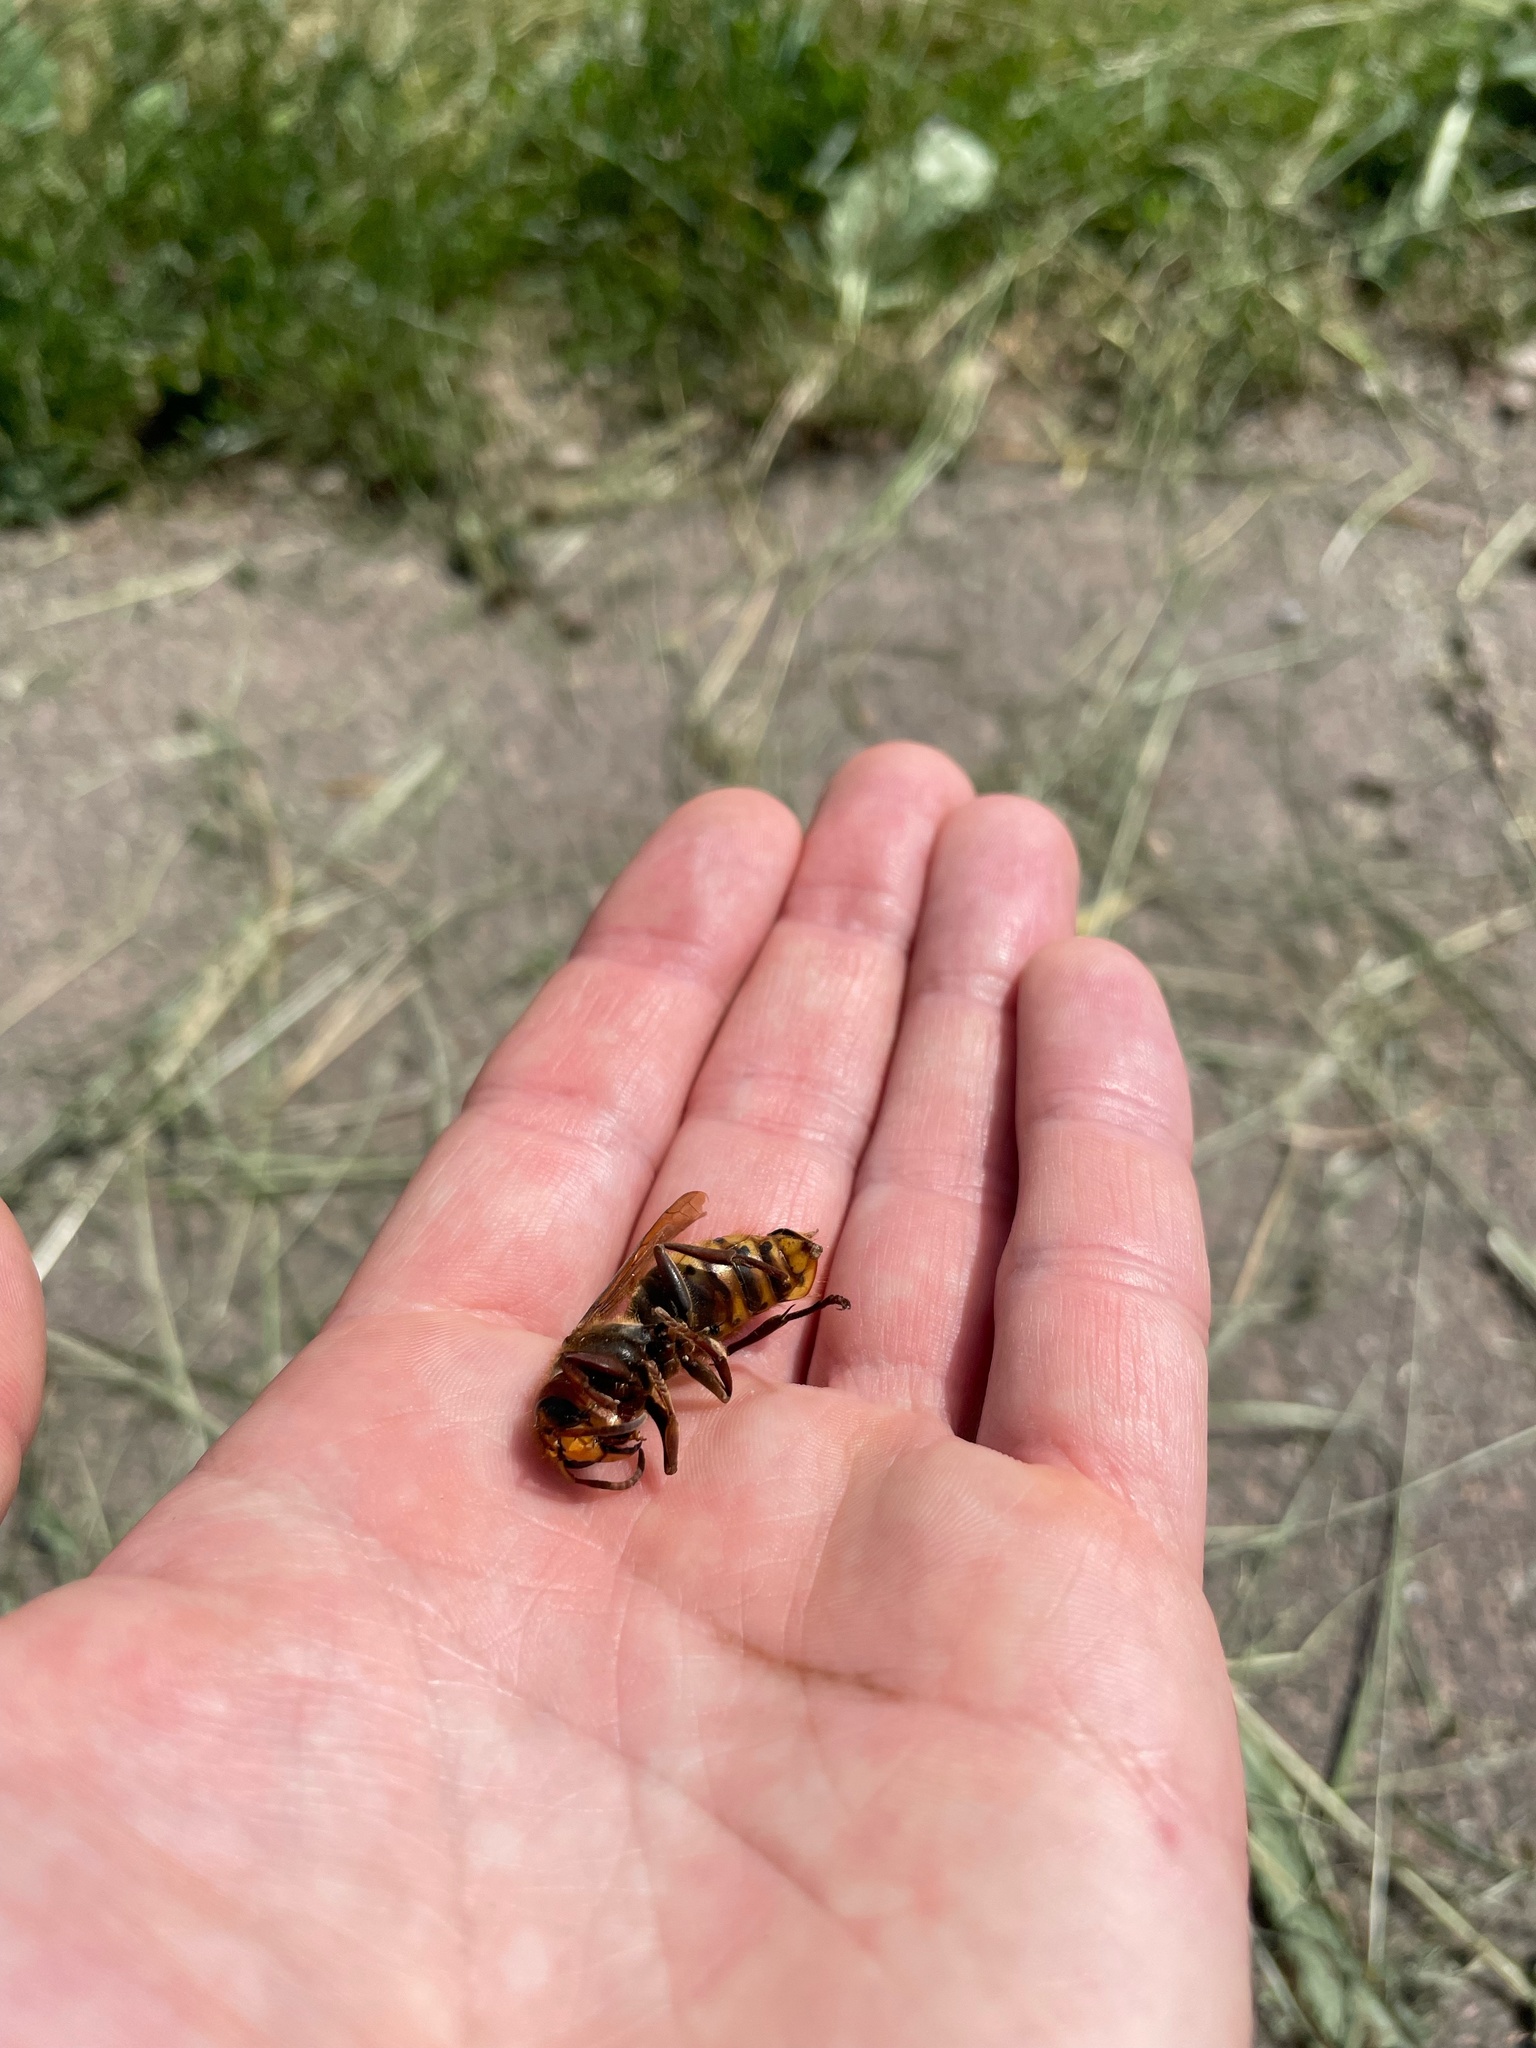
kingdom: Animalia
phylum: Arthropoda
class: Insecta
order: Hymenoptera
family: Vespidae
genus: Vespa
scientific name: Vespa crabro
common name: Hornet
